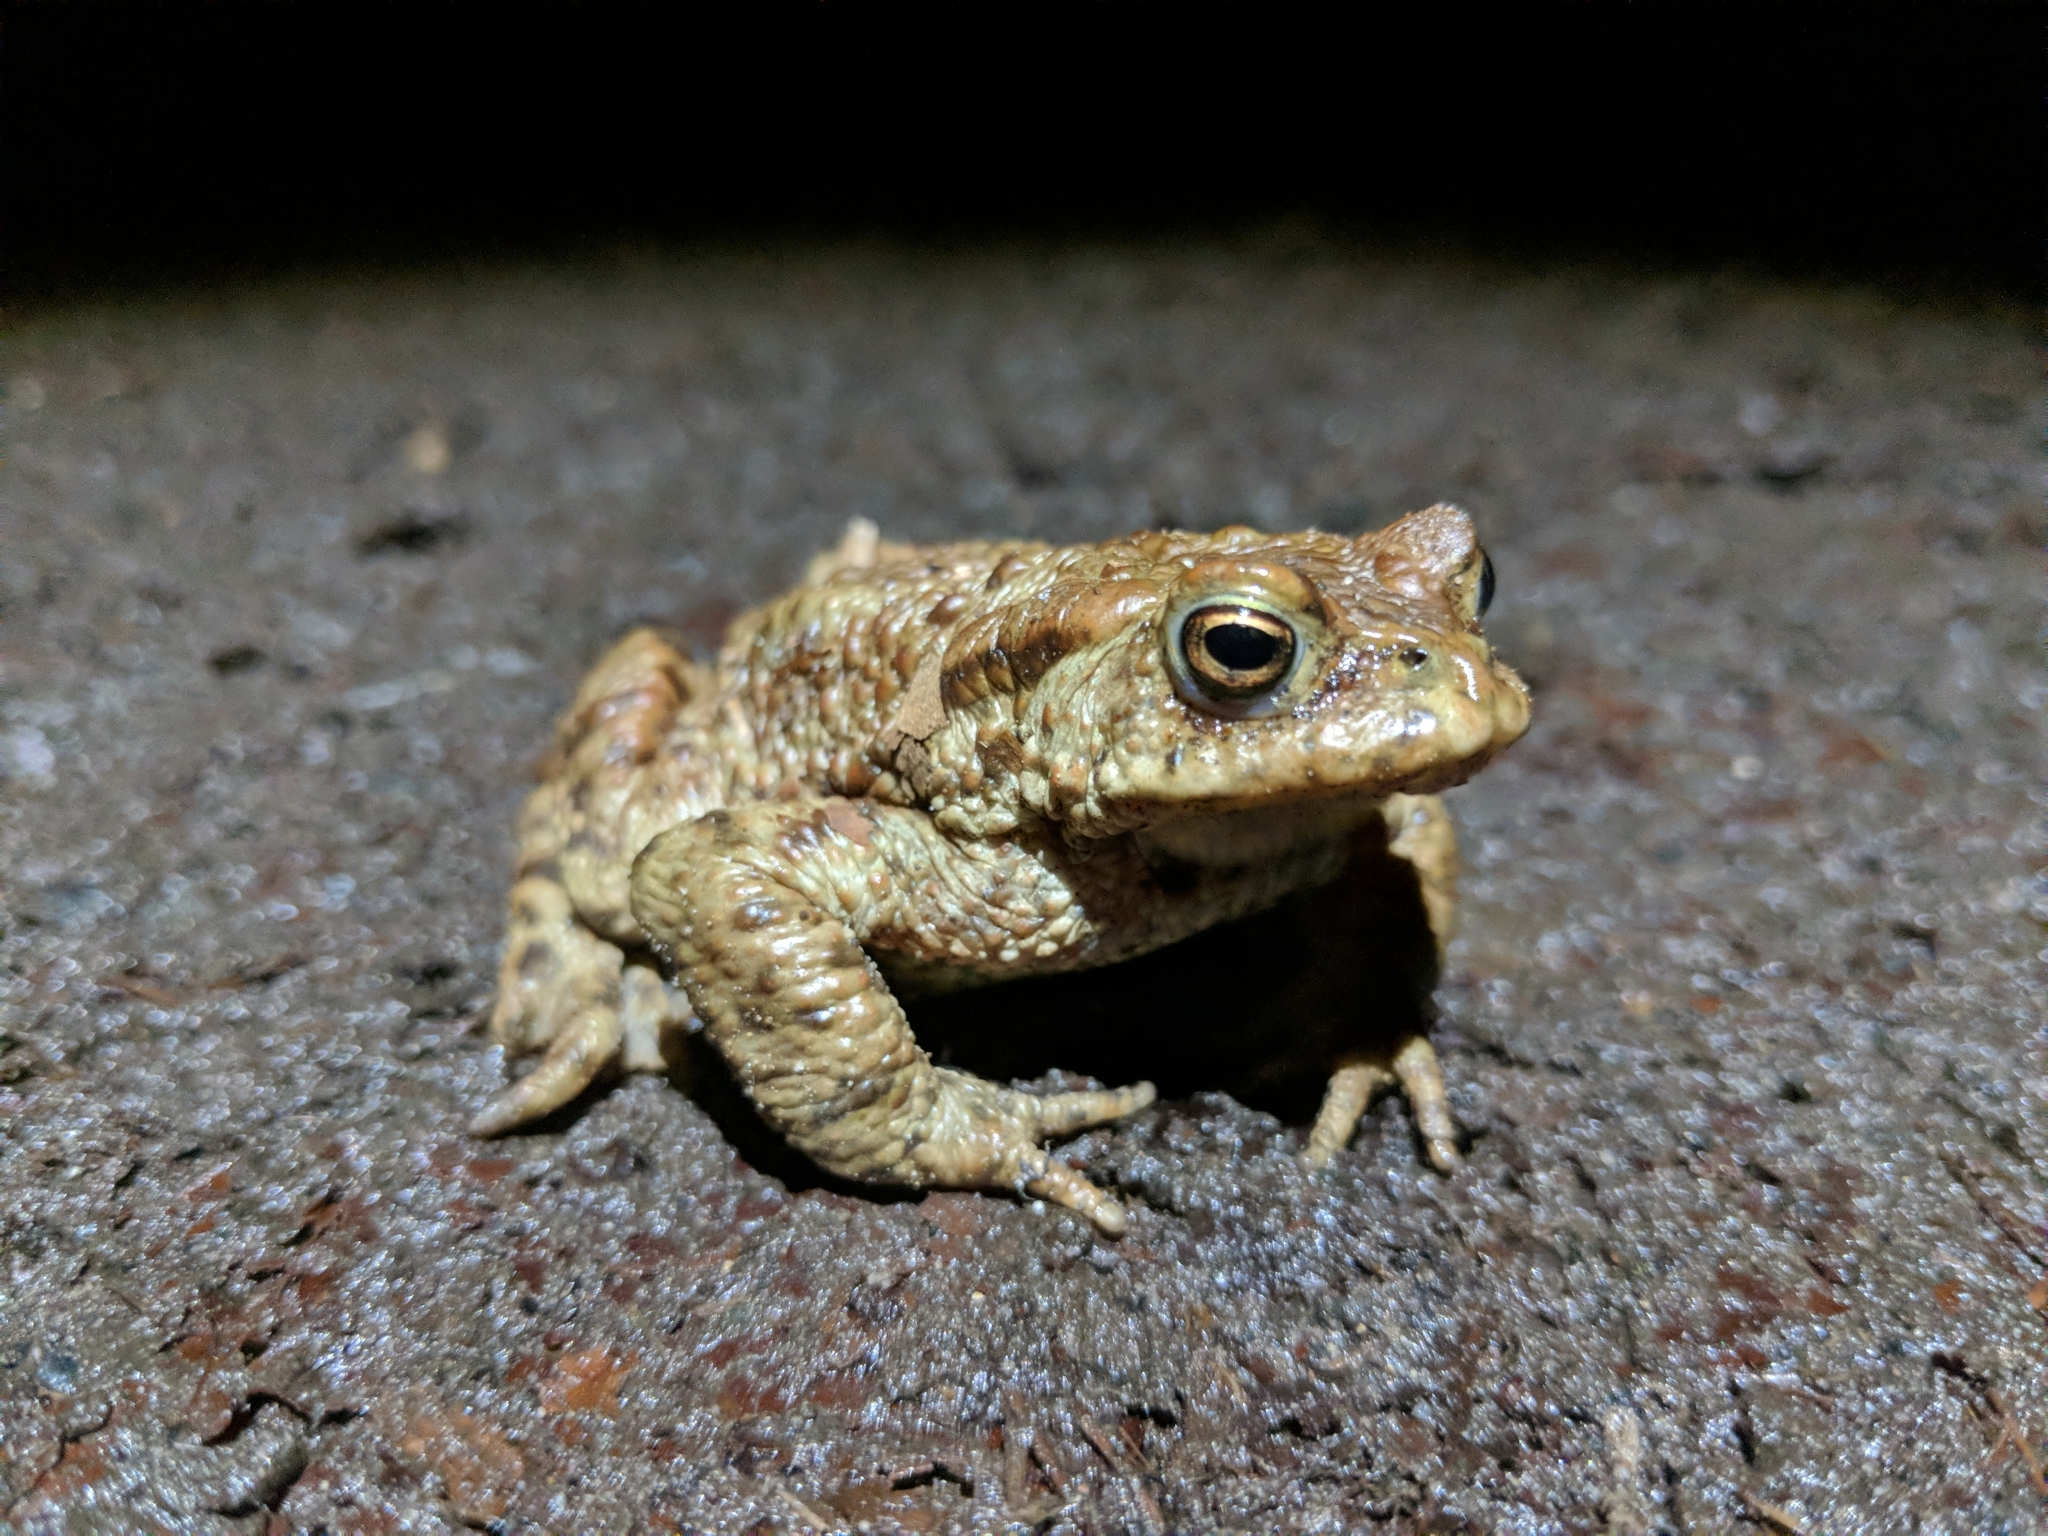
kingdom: Animalia
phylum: Chordata
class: Amphibia
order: Anura
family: Bufonidae
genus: Bufo
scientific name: Bufo bufo
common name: Common toad
